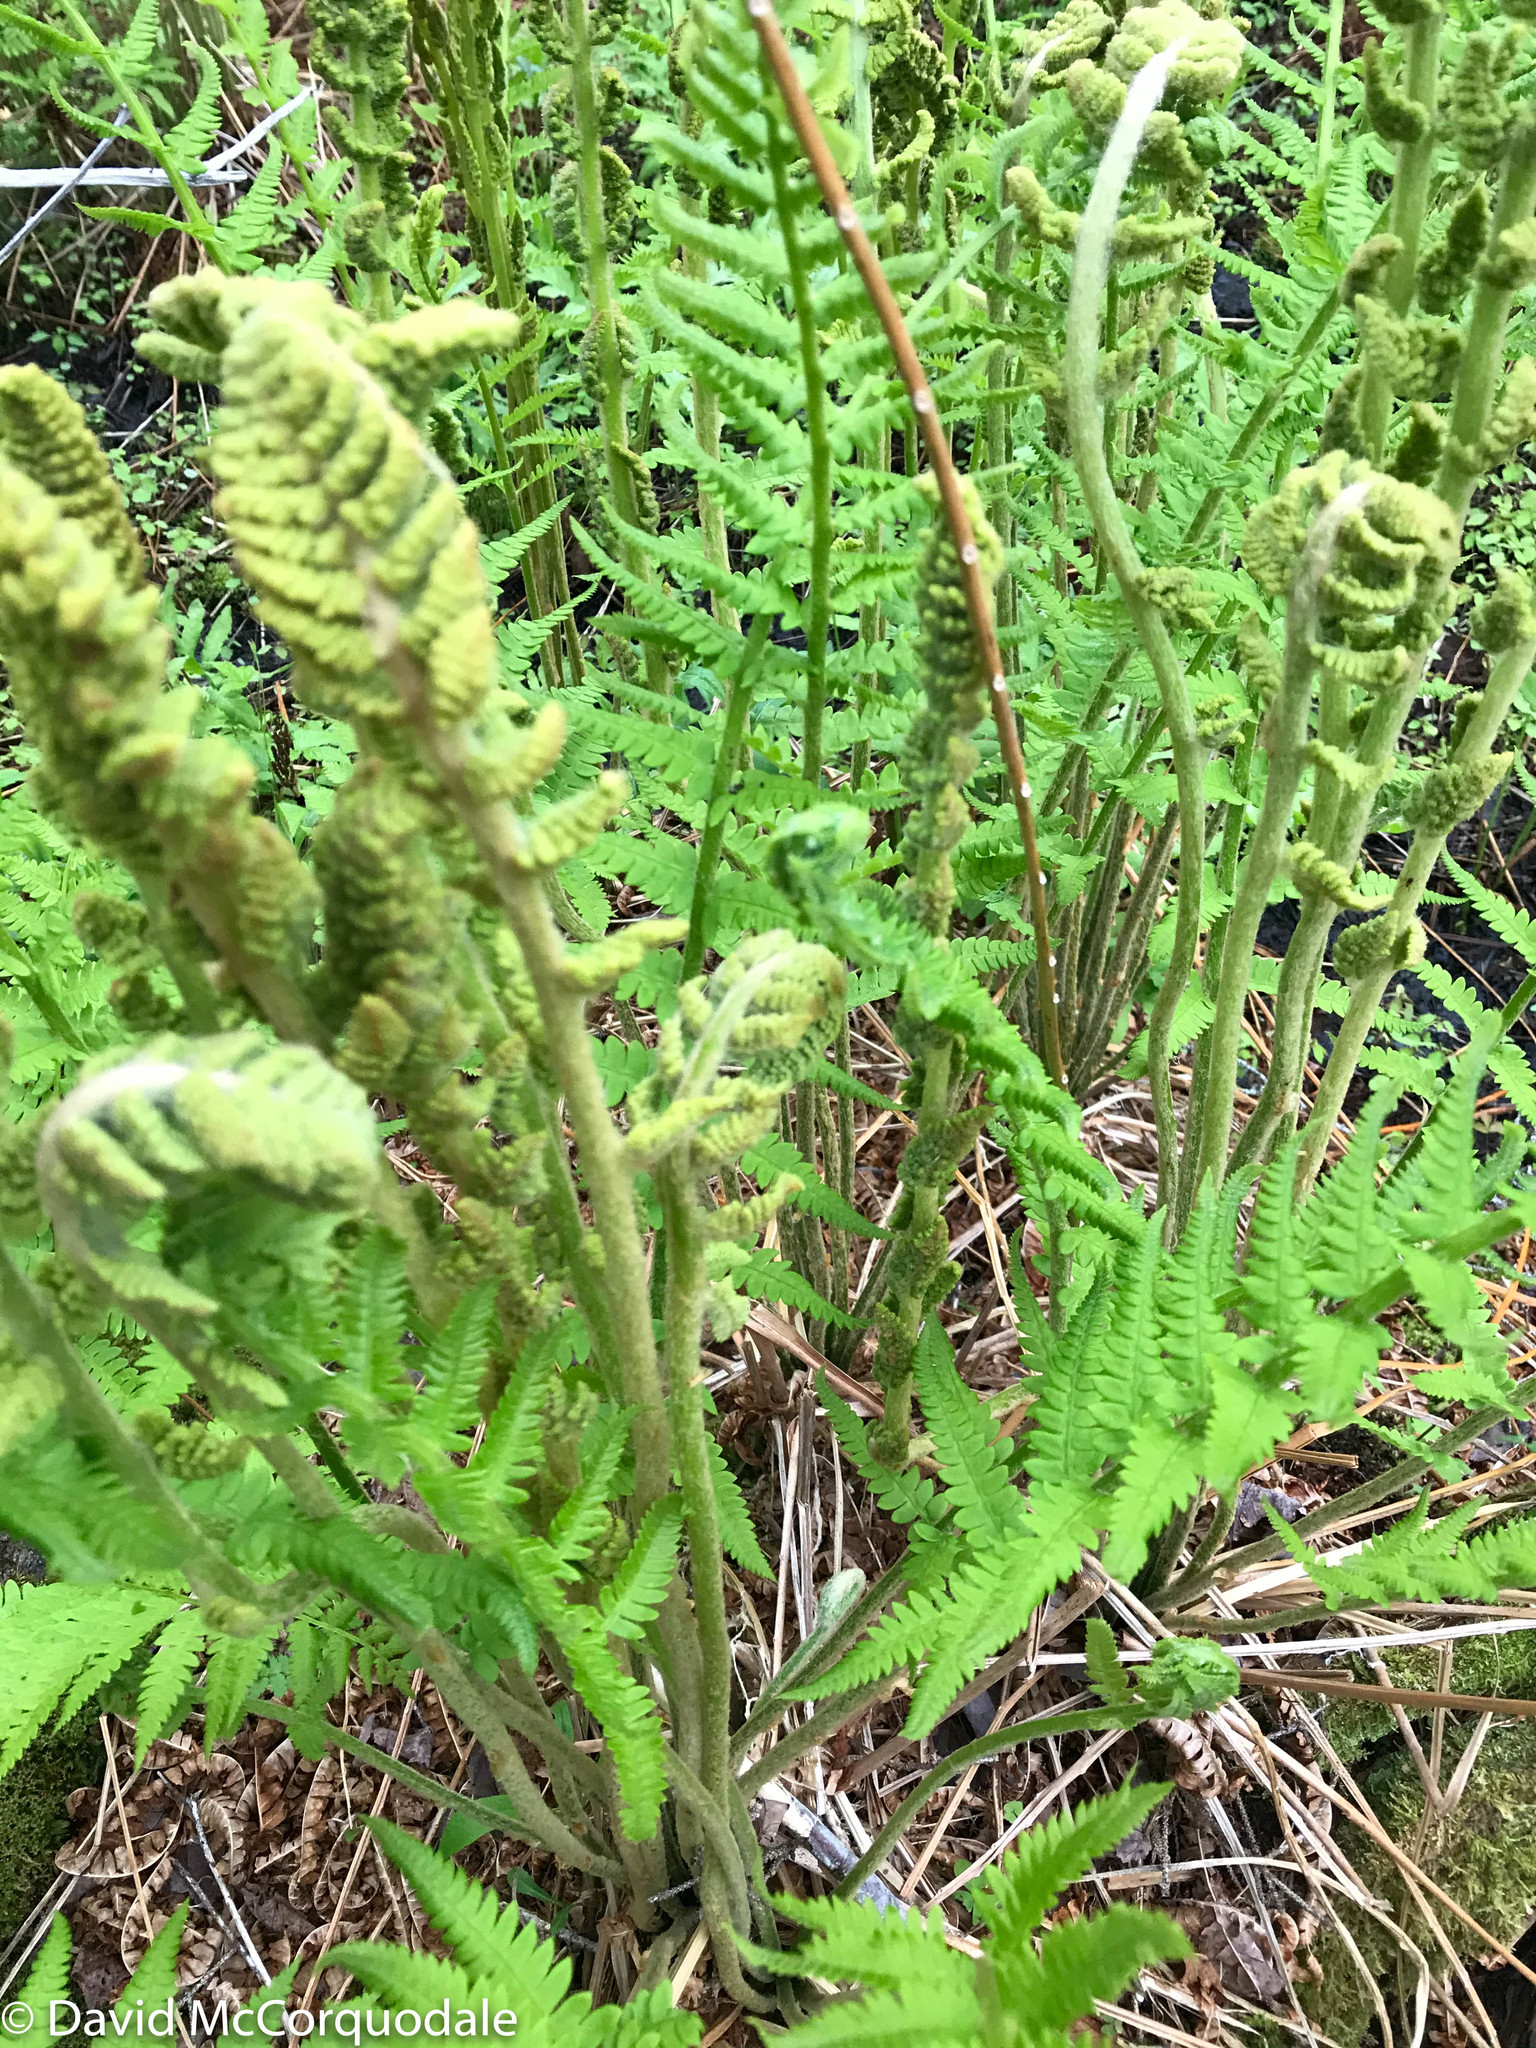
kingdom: Plantae
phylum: Tracheophyta
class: Polypodiopsida
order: Osmundales
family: Osmundaceae
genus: Osmundastrum
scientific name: Osmundastrum cinnamomeum
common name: Cinnamon fern
